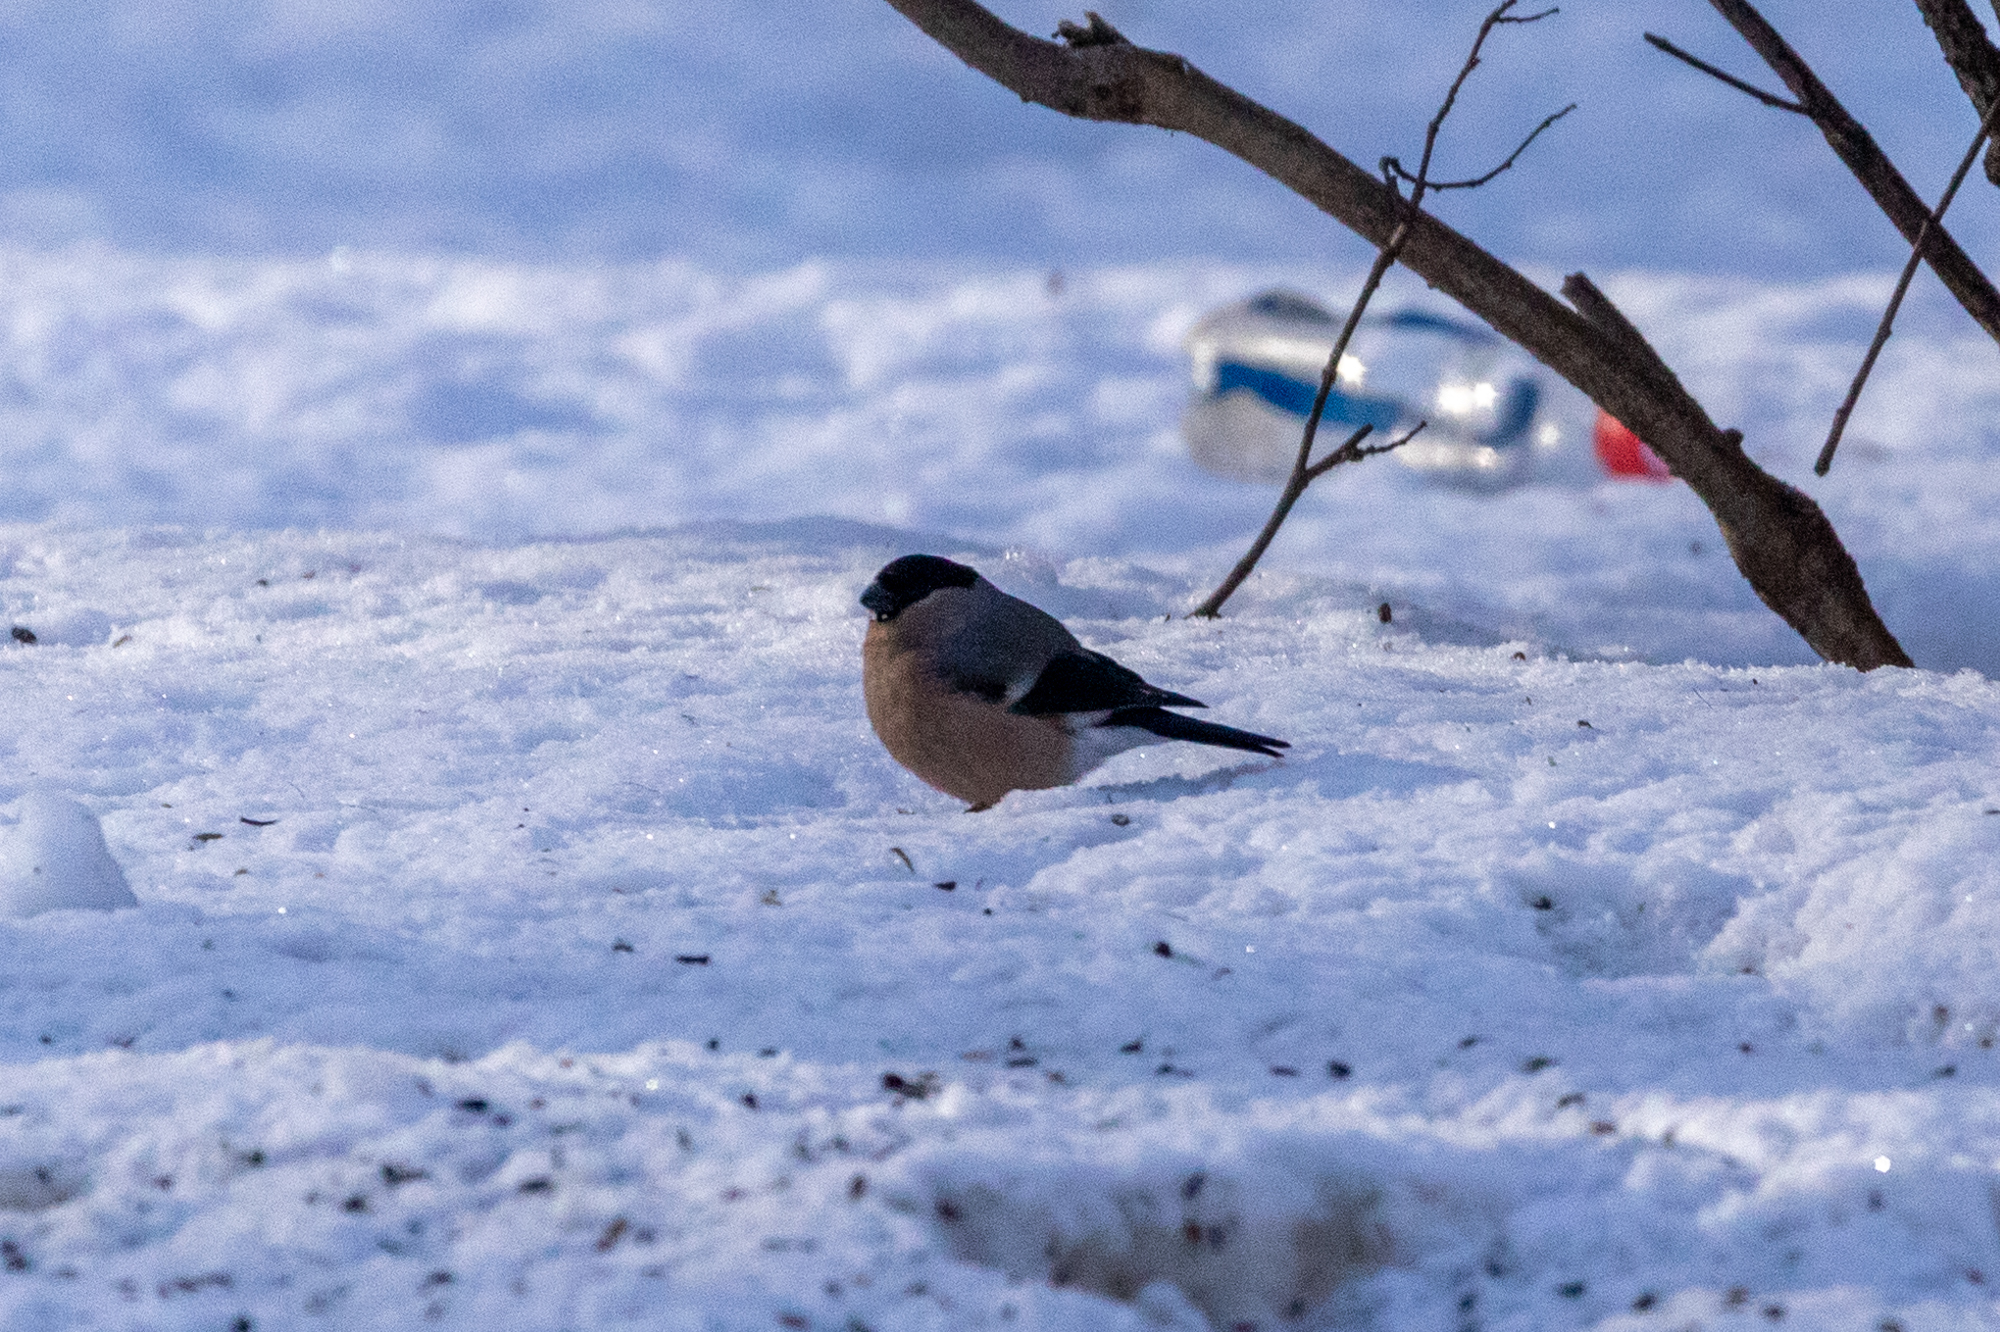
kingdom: Animalia
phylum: Chordata
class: Aves
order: Passeriformes
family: Fringillidae
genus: Pyrrhula
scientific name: Pyrrhula pyrrhula
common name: Eurasian bullfinch
